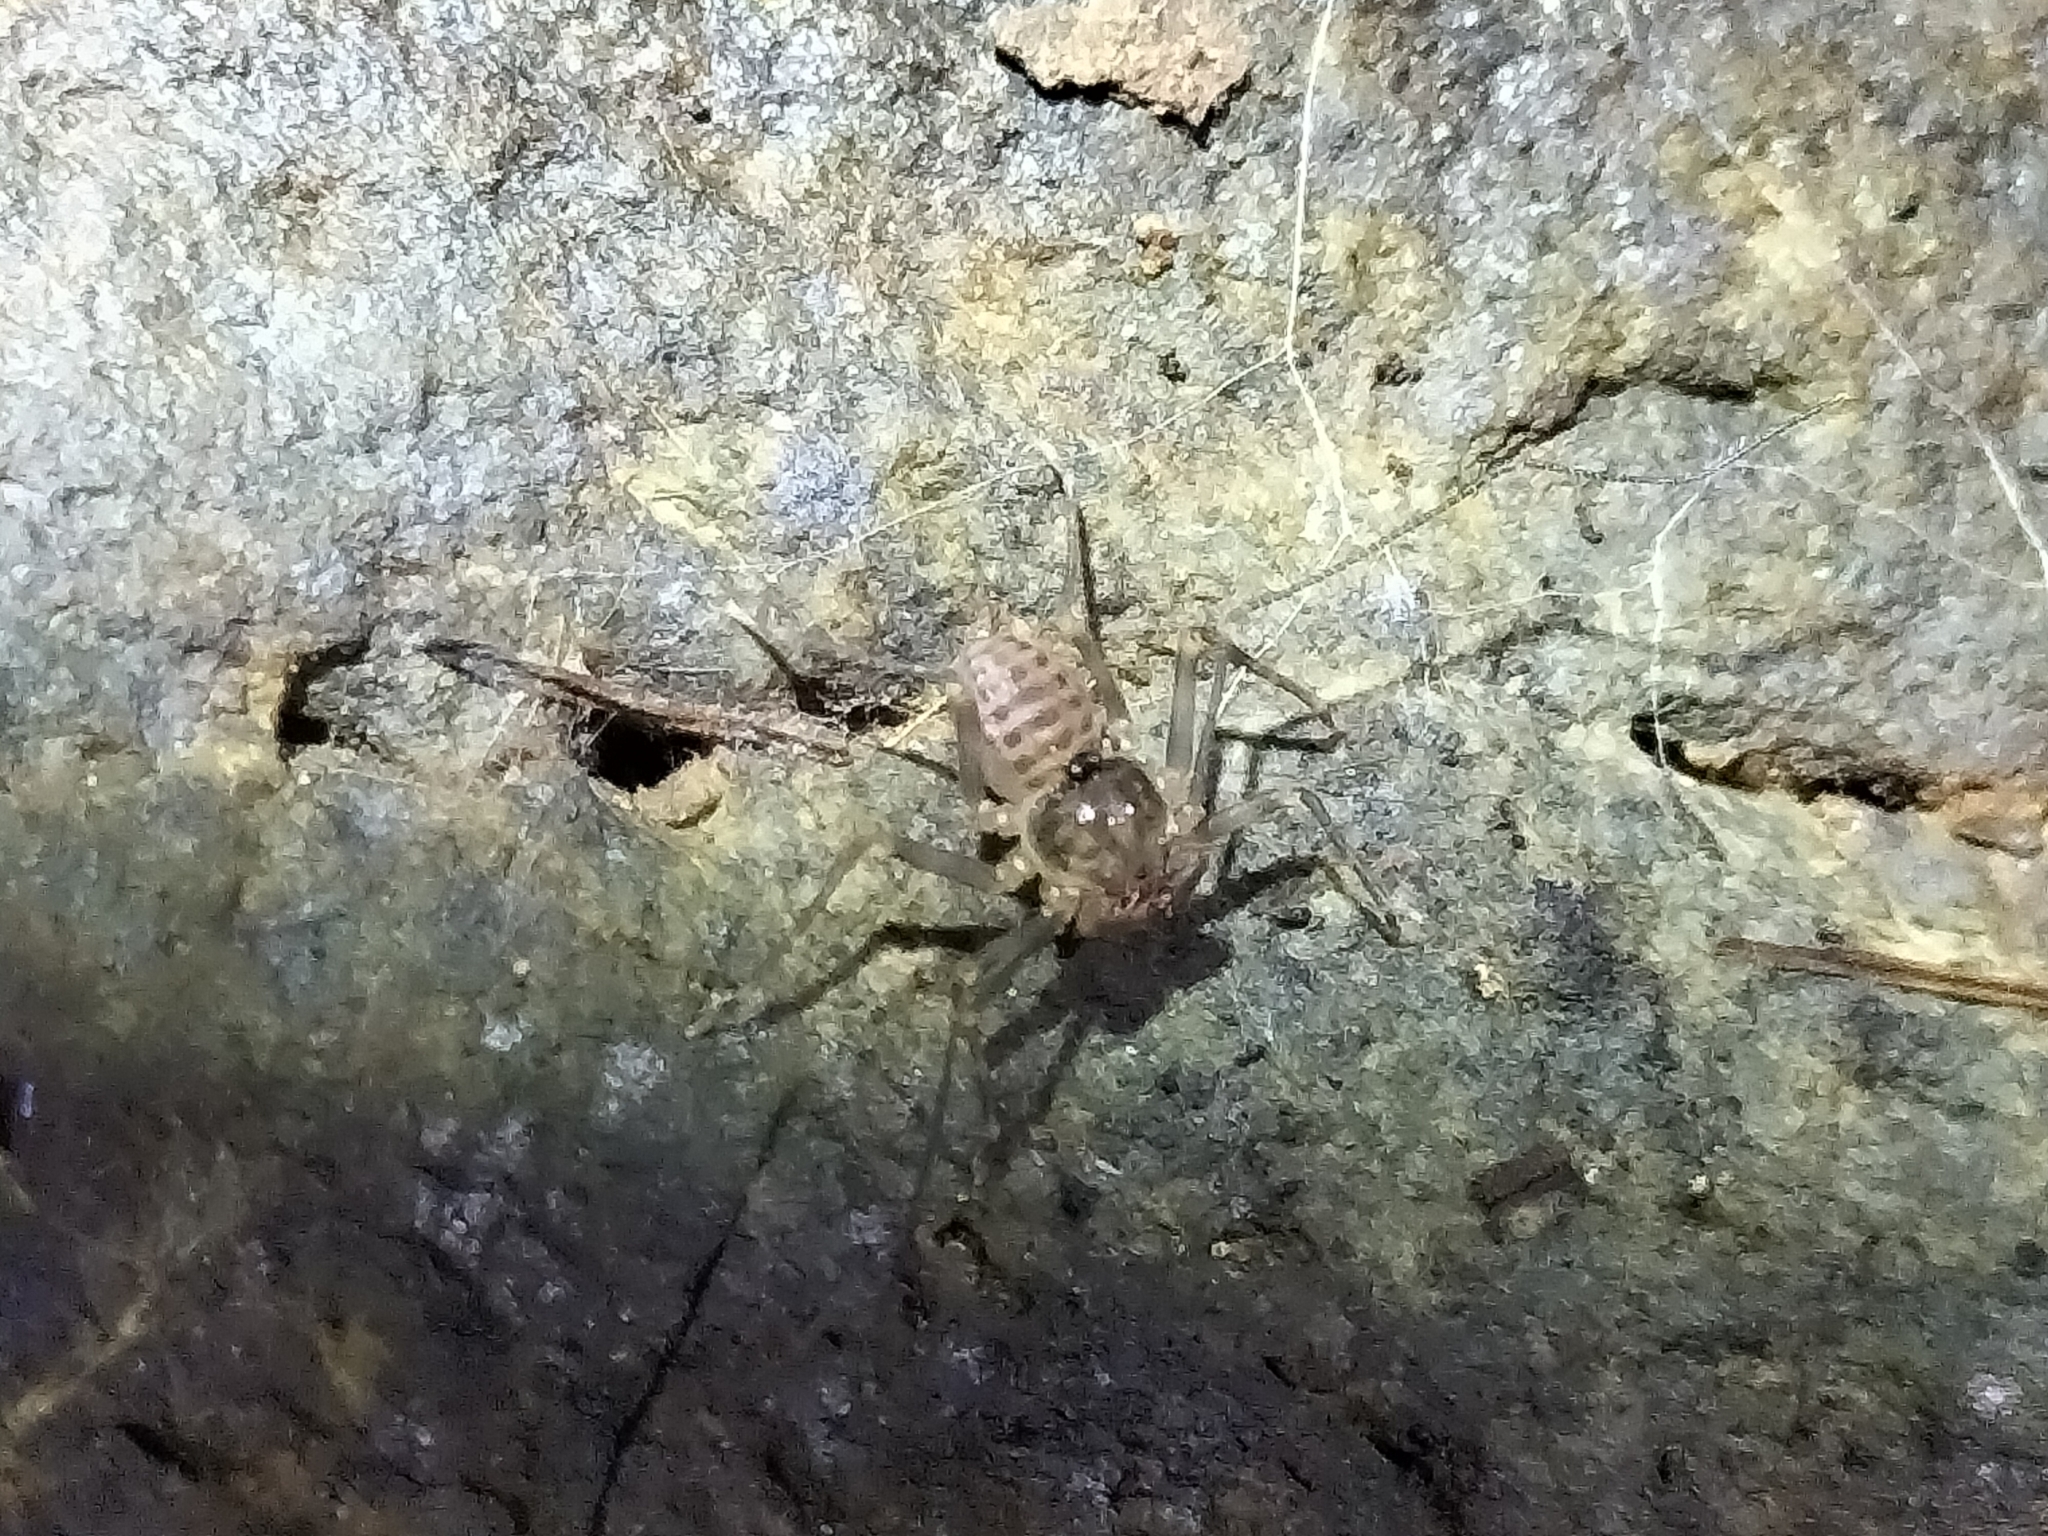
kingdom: Animalia
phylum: Arthropoda
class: Arachnida
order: Amblypygi
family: Charinidae
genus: Charinus
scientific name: Charinus pescotti
